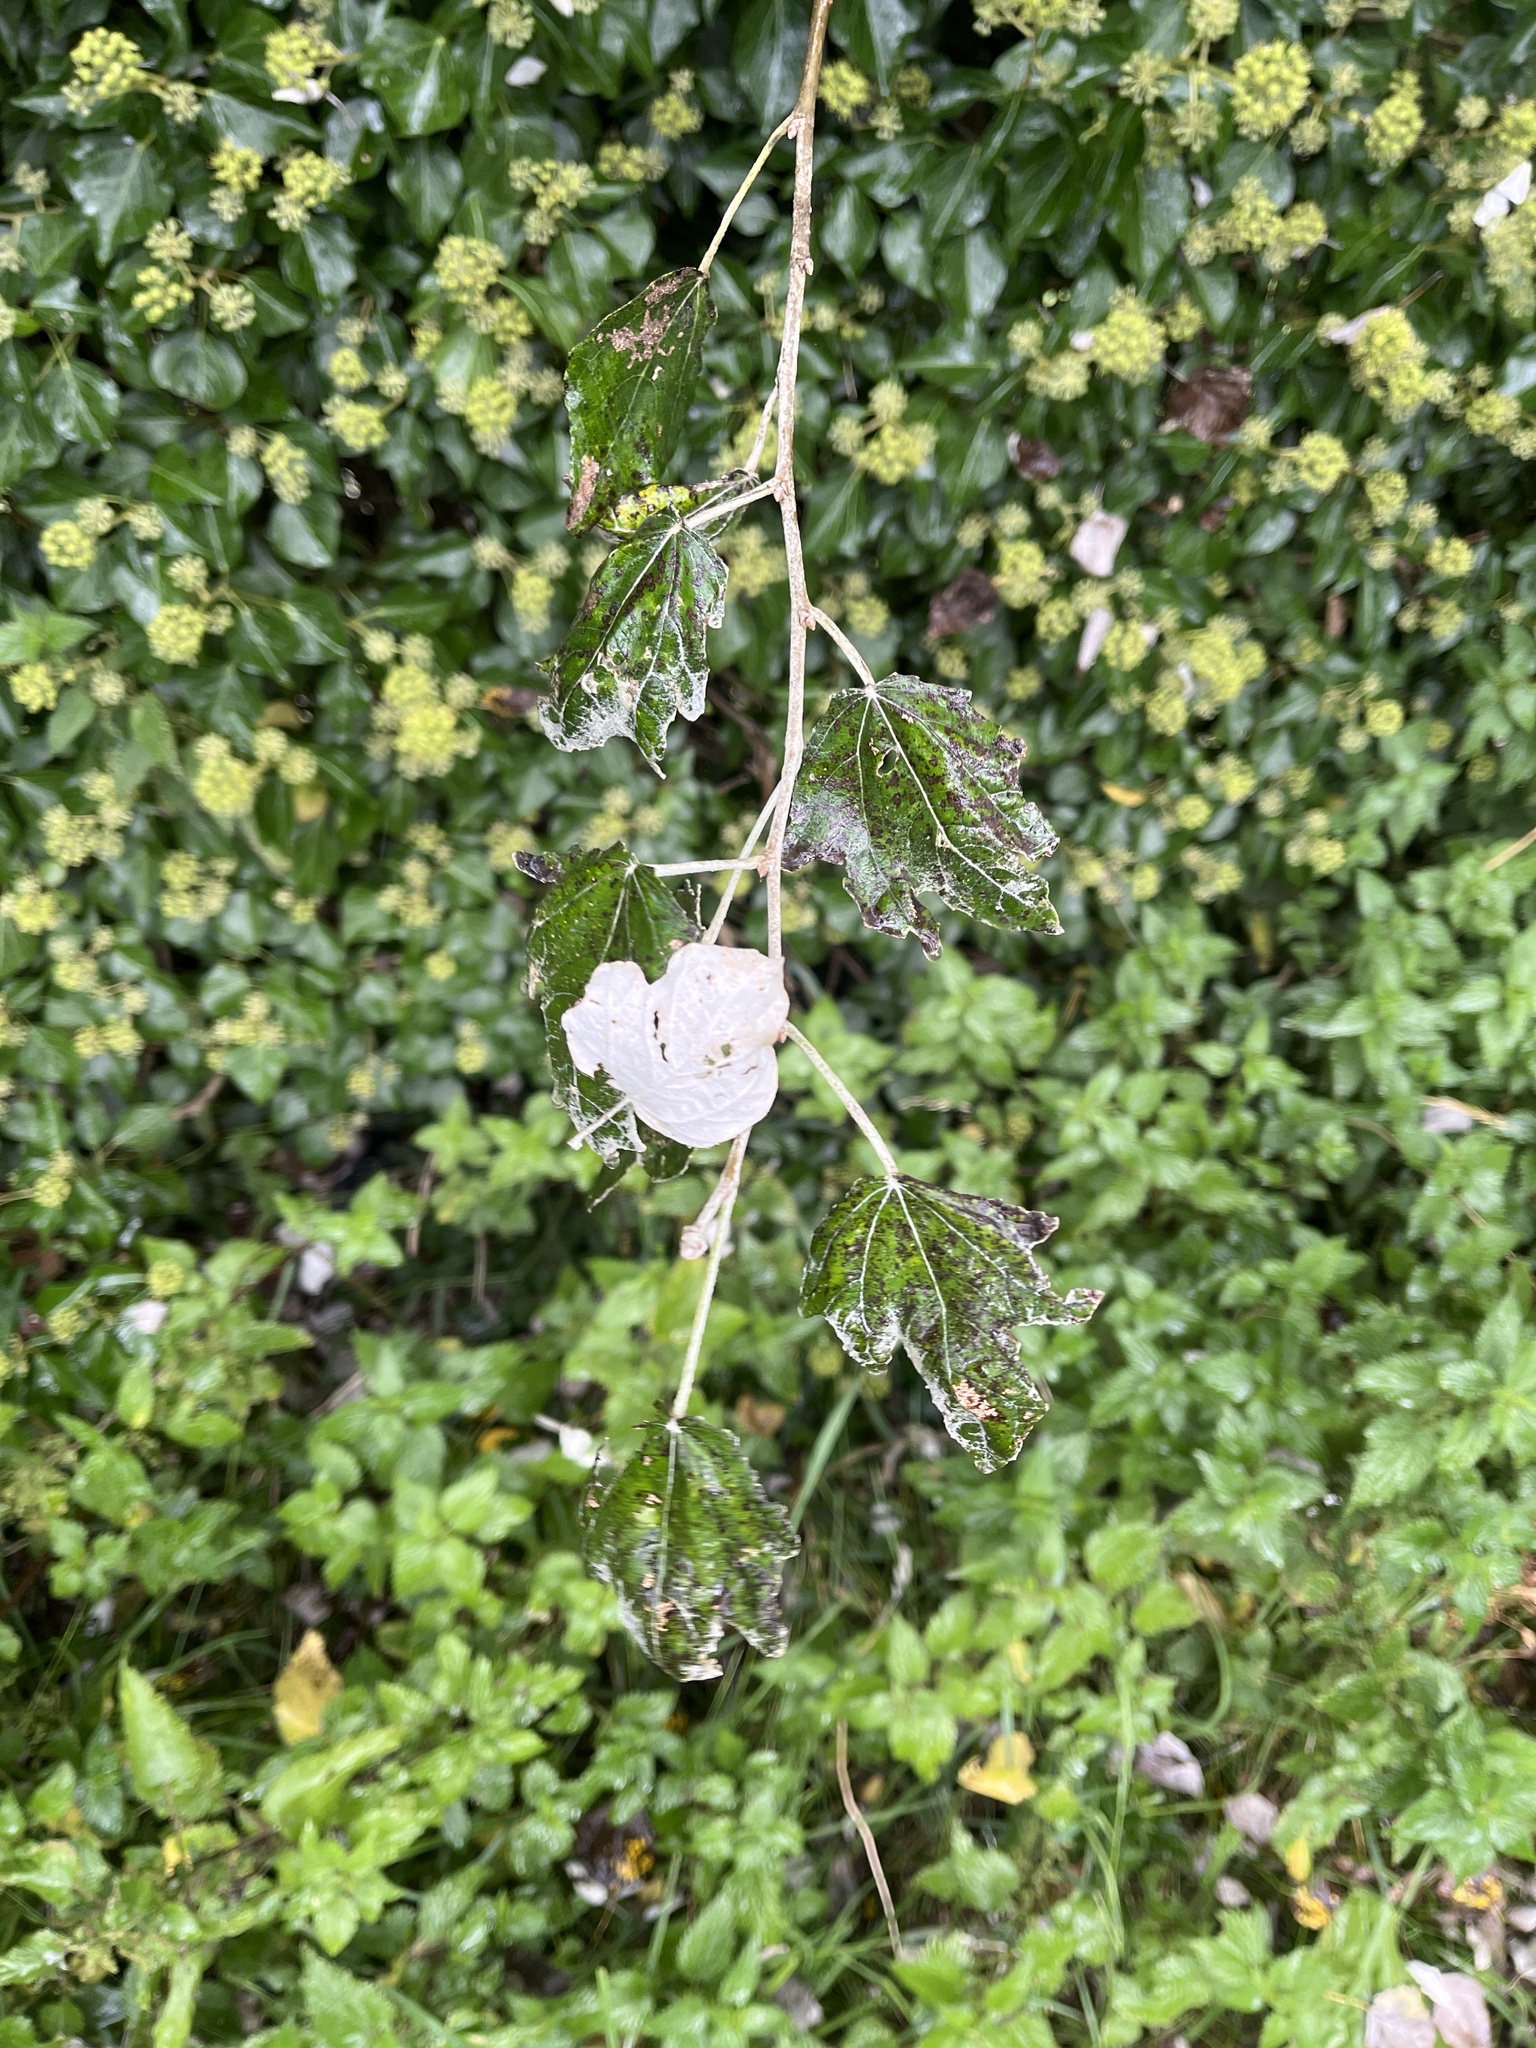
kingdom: Plantae
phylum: Tracheophyta
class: Magnoliopsida
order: Malpighiales
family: Salicaceae
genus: Populus
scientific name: Populus alba
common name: White poplar
